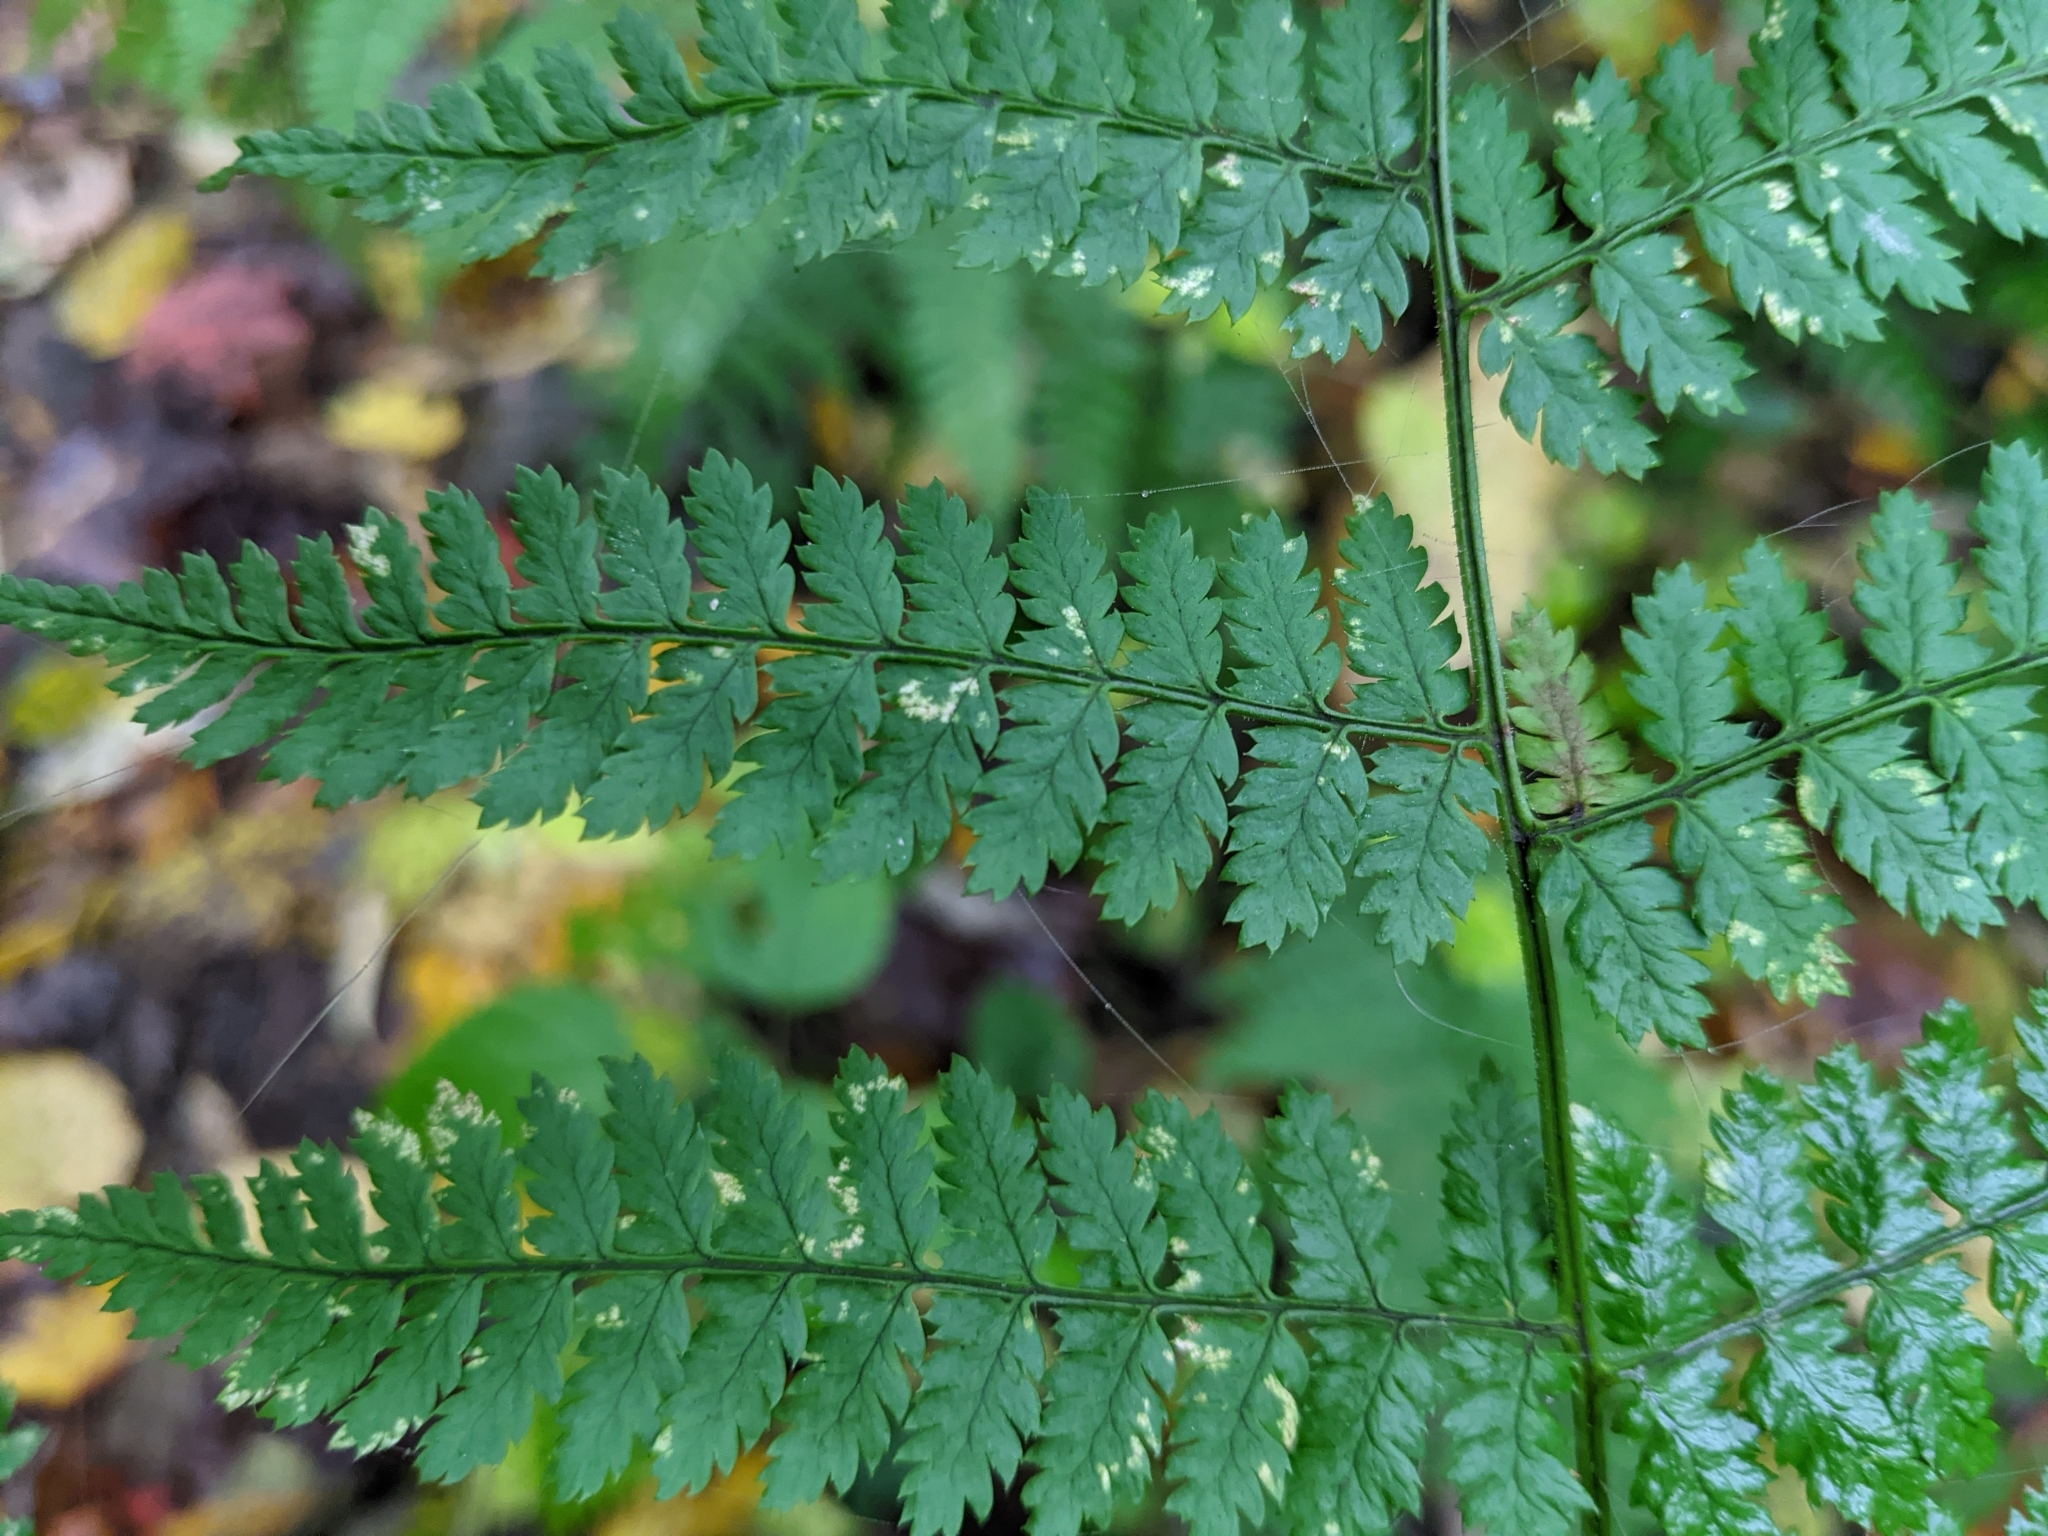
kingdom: Plantae
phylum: Tracheophyta
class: Polypodiopsida
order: Polypodiales
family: Dryopteridaceae
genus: Dryopteris
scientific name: Dryopteris intermedia
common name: Evergreen wood fern
